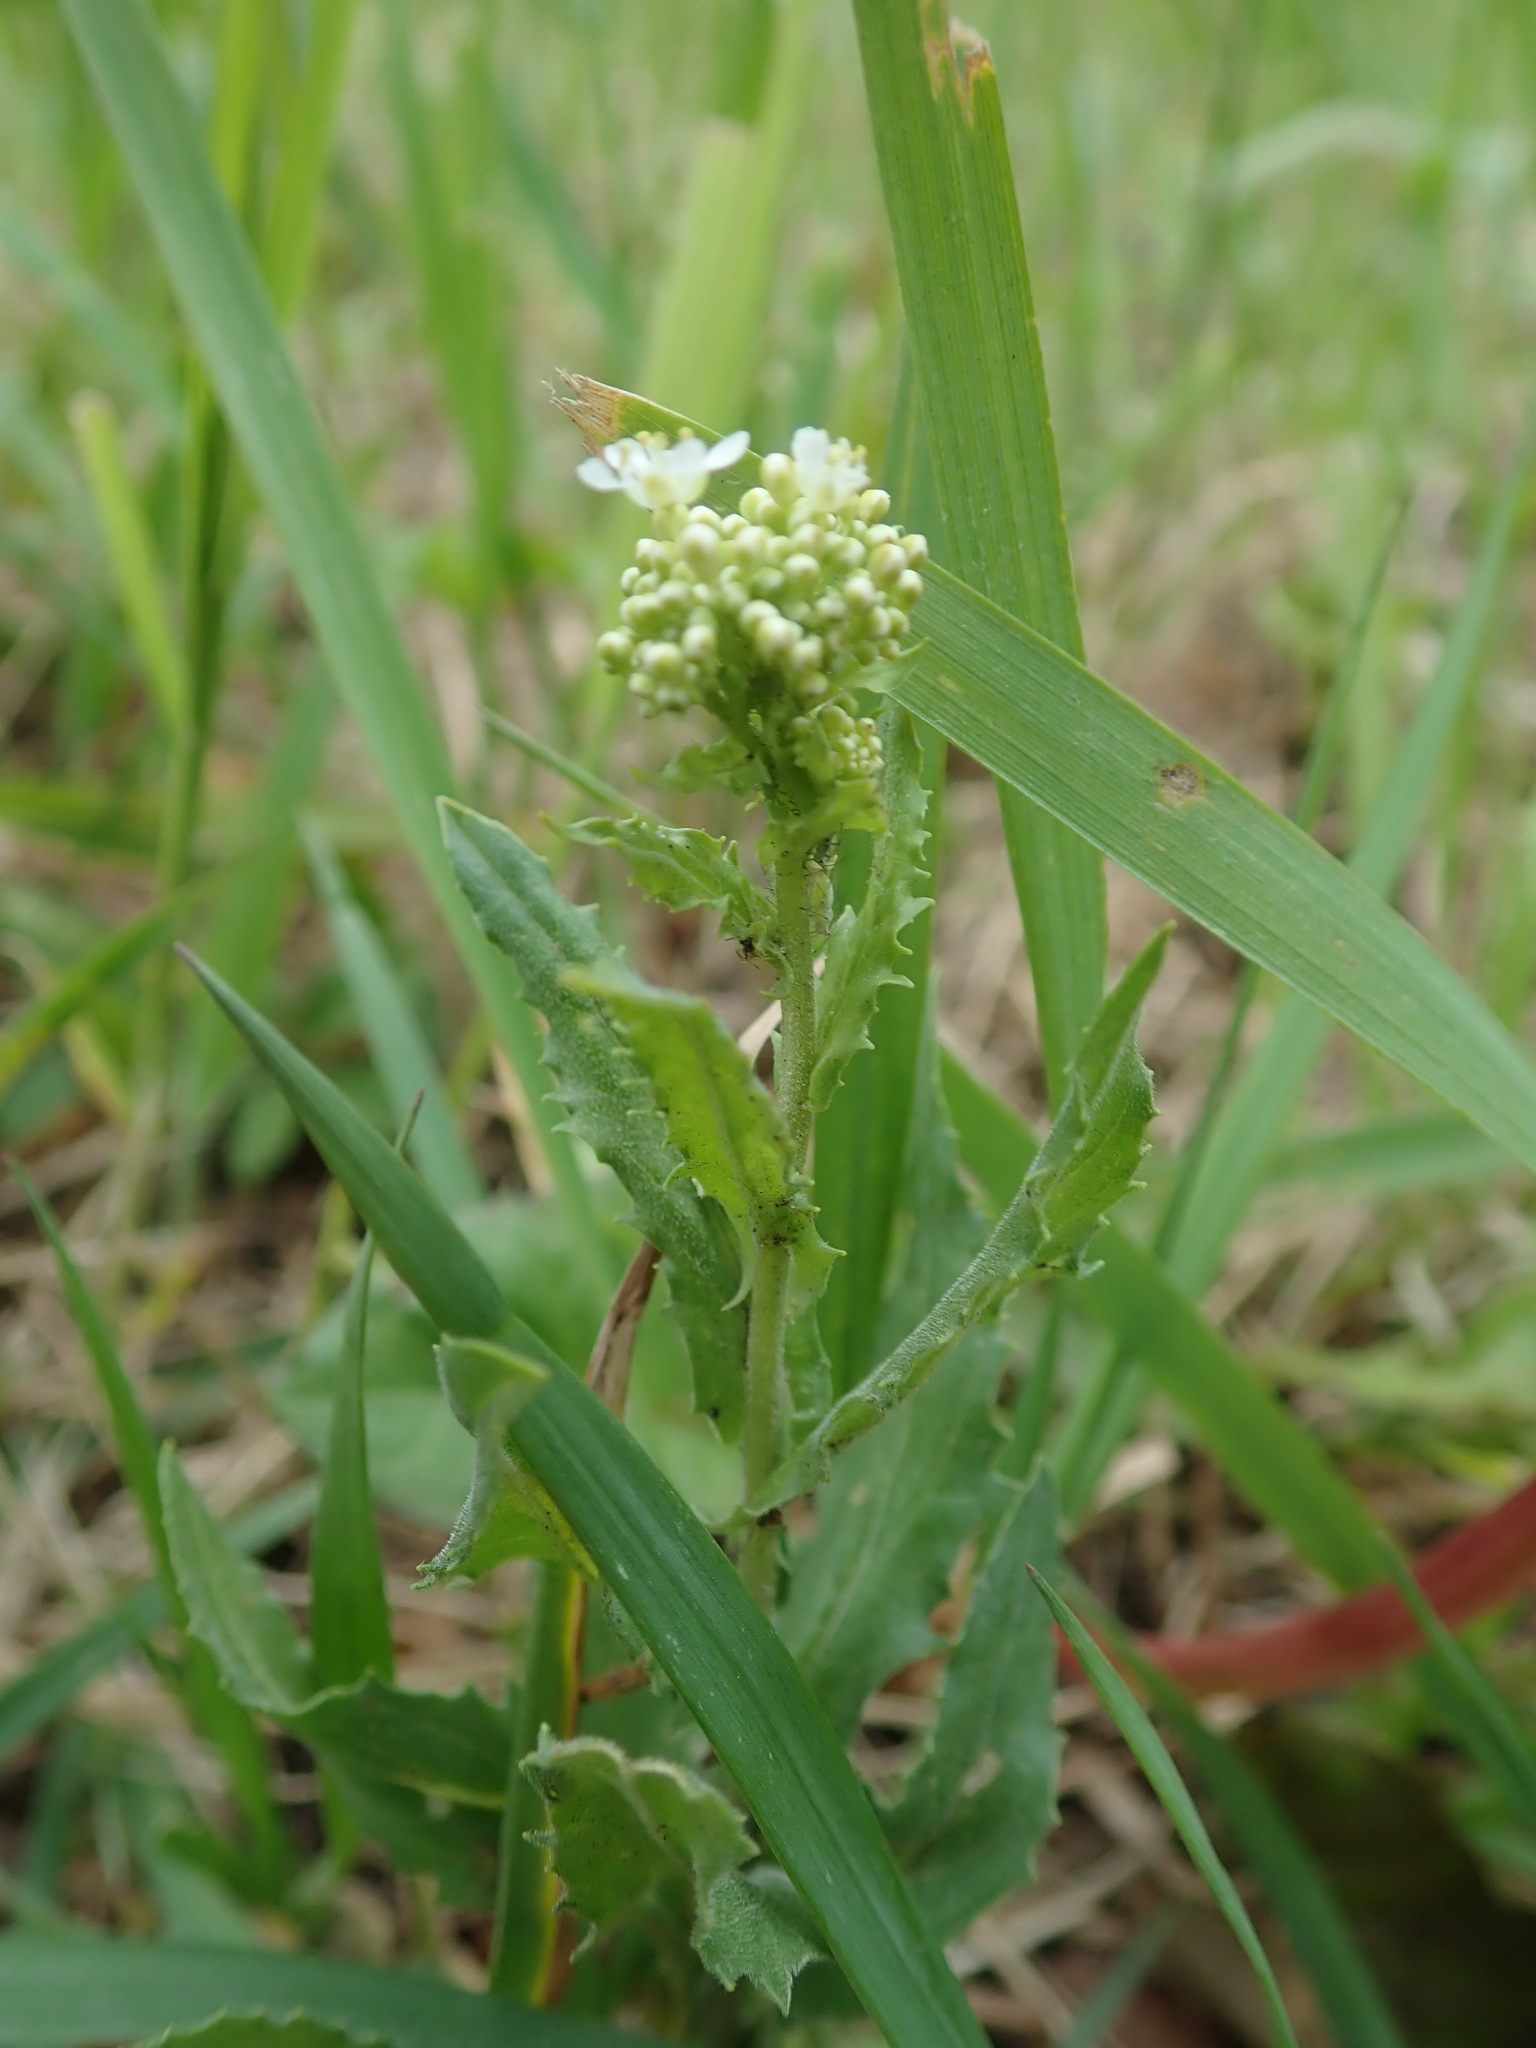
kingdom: Plantae
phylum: Tracheophyta
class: Magnoliopsida
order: Brassicales
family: Brassicaceae
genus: Lepidium
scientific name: Lepidium draba
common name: Hoary cress
